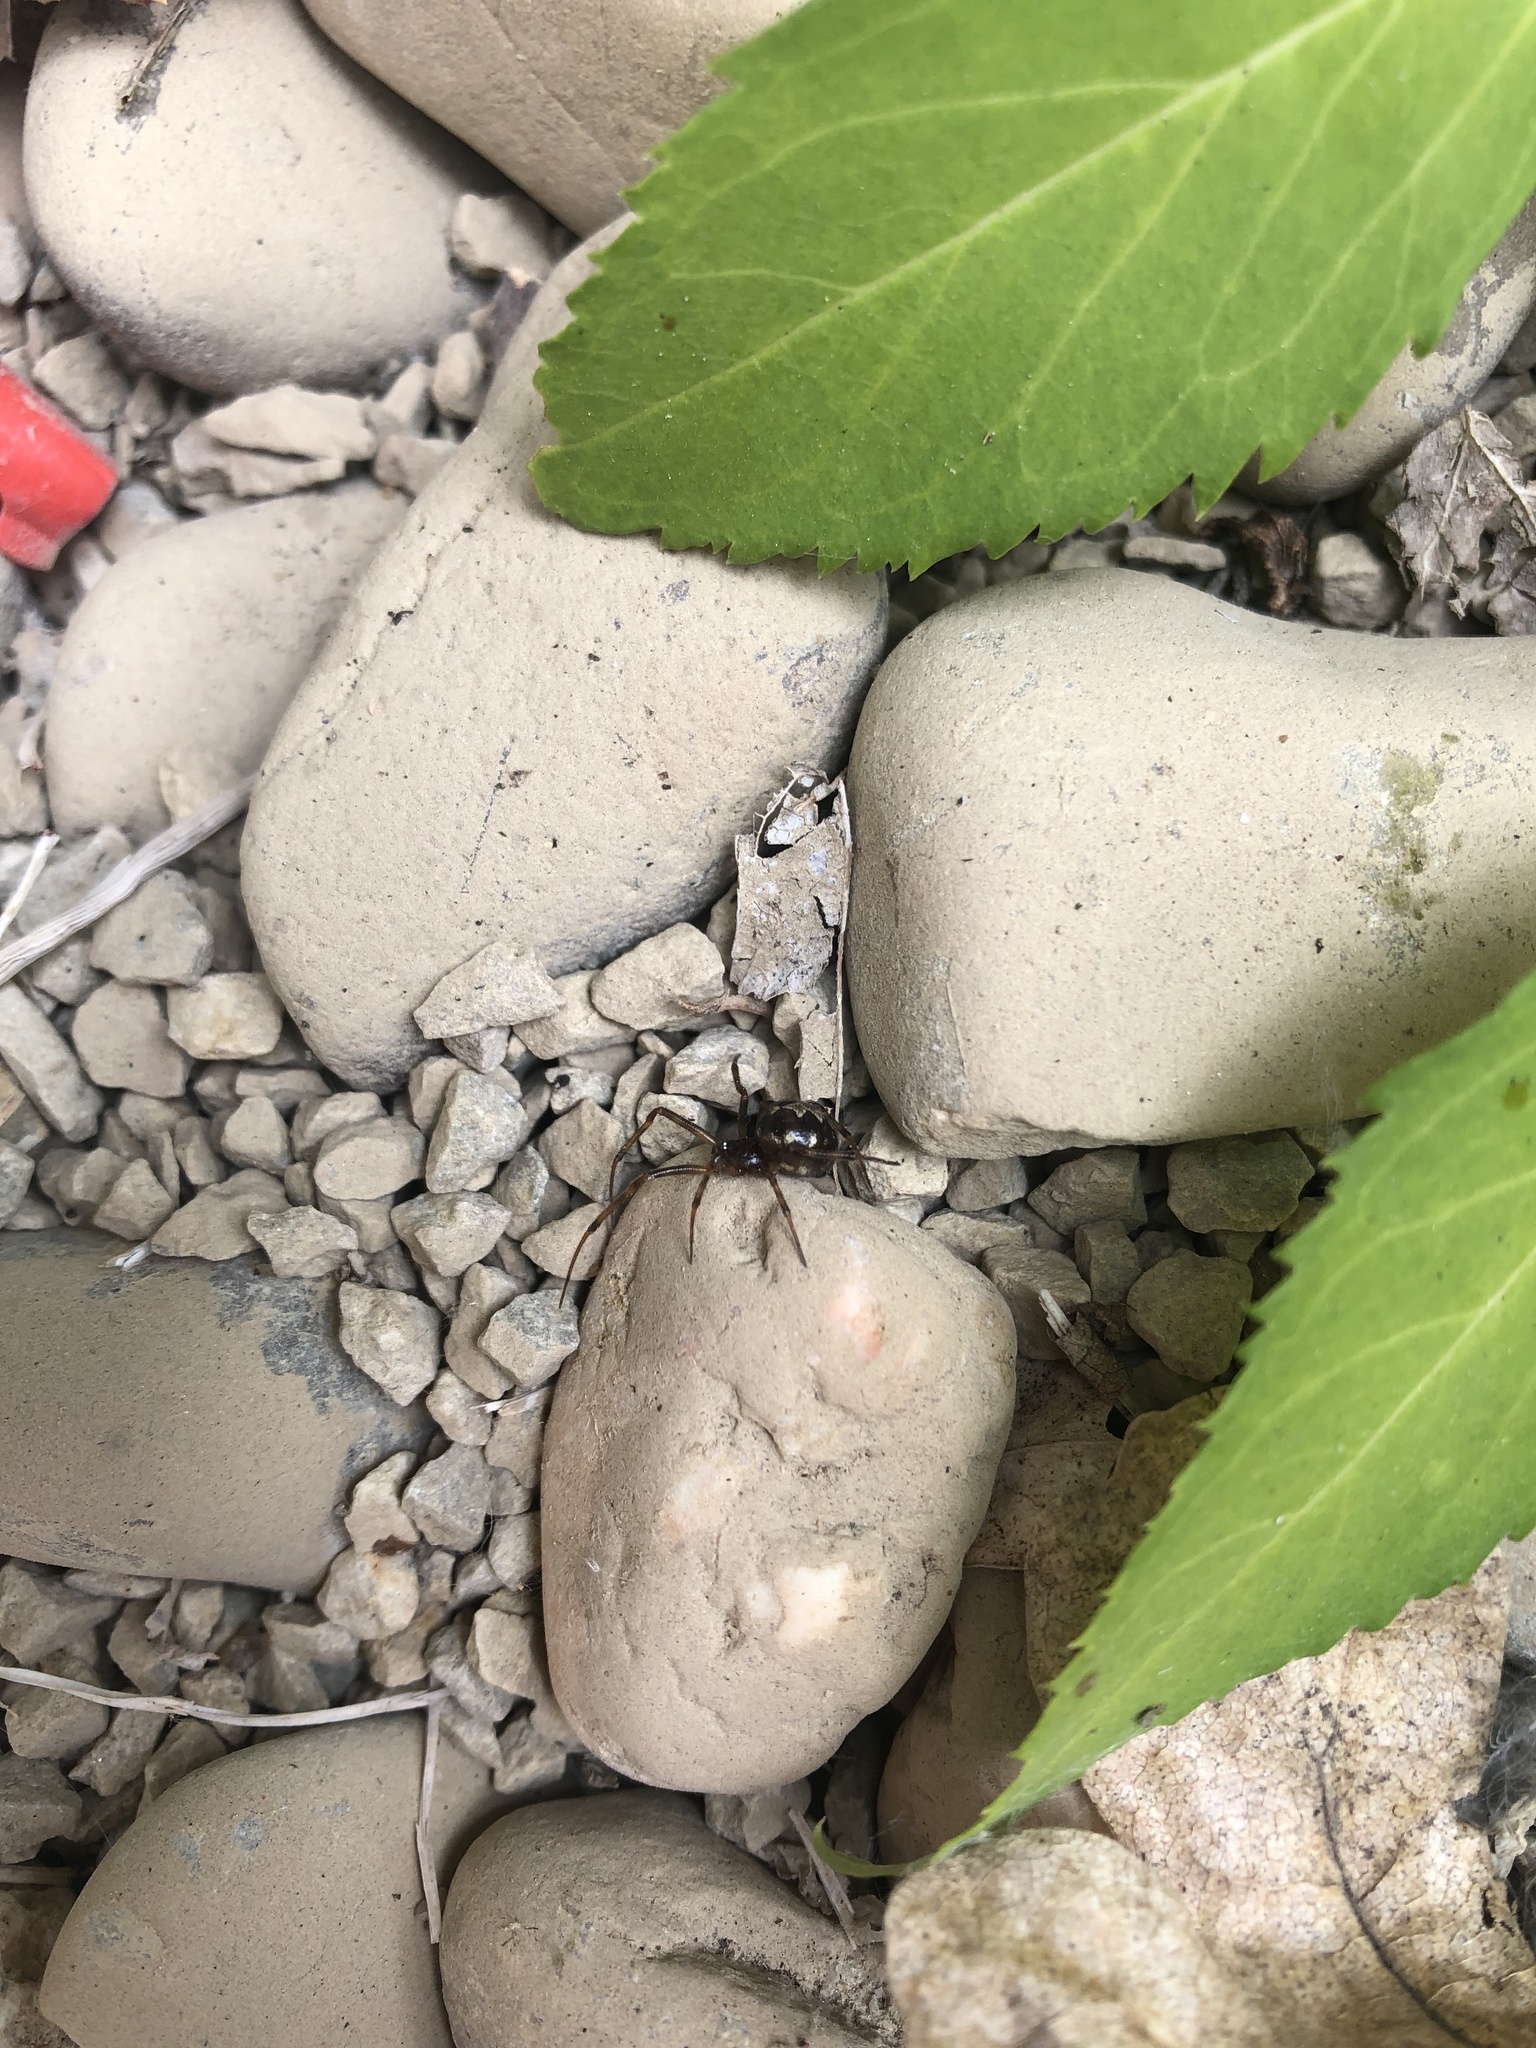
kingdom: Animalia
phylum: Arthropoda
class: Arachnida
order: Araneae
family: Theridiidae
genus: Steatoda
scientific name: Steatoda triangulosa
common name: Triangulate bud spider
